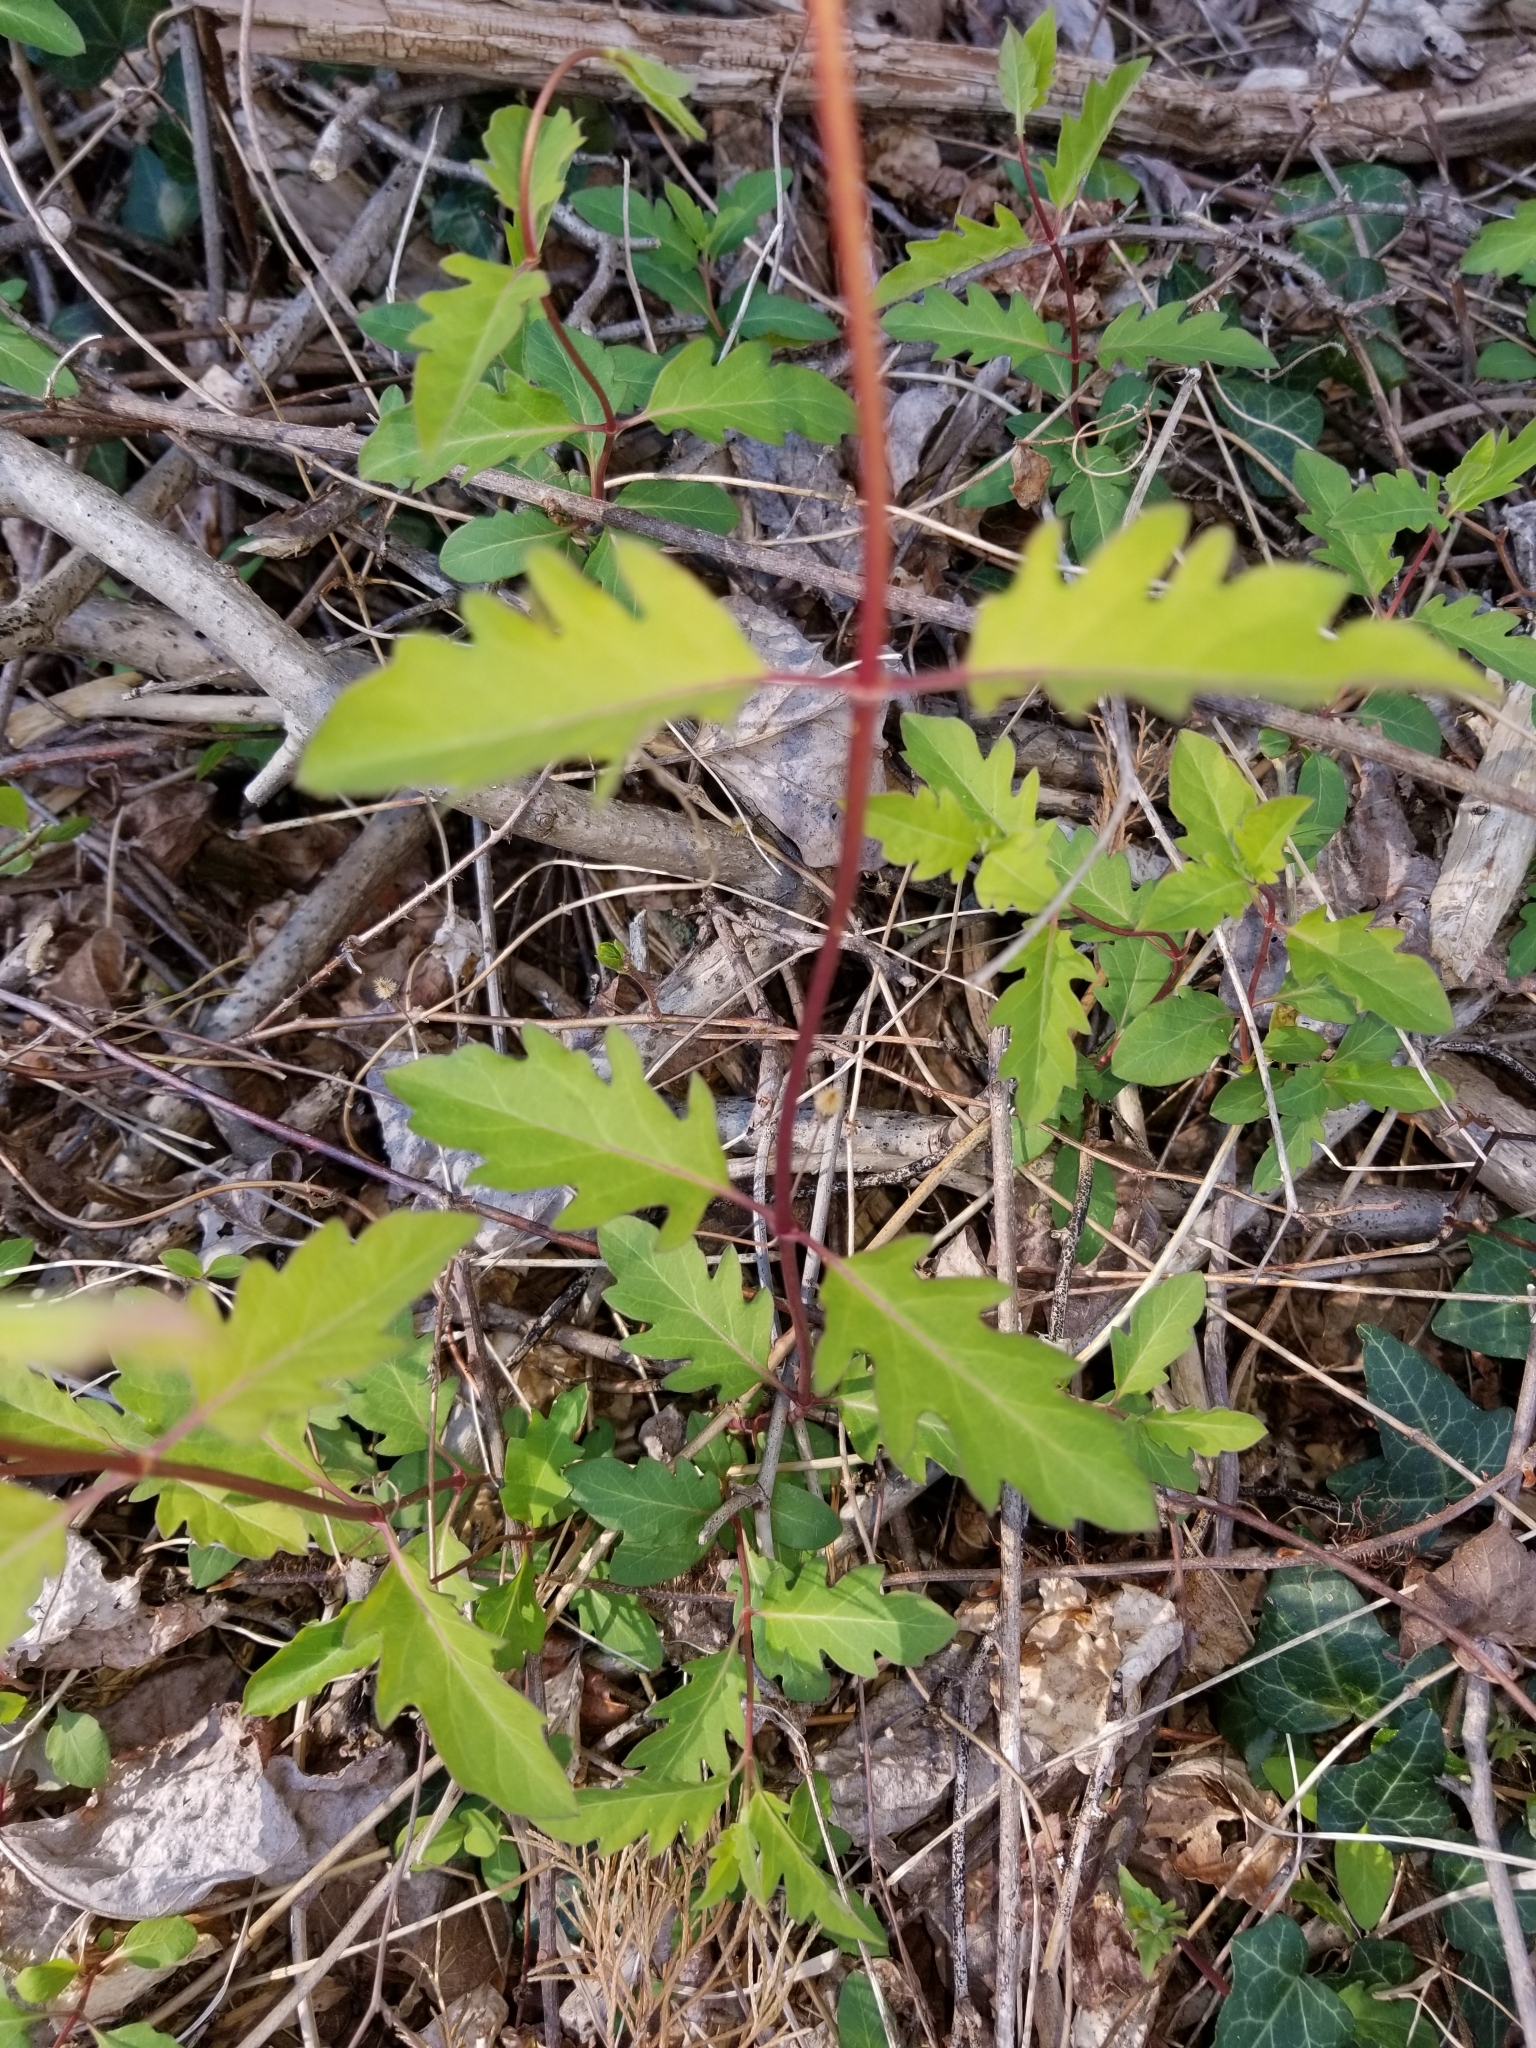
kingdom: Plantae
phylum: Tracheophyta
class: Magnoliopsida
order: Dipsacales
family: Caprifoliaceae
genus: Lonicera
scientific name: Lonicera japonica
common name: Japanese honeysuckle
